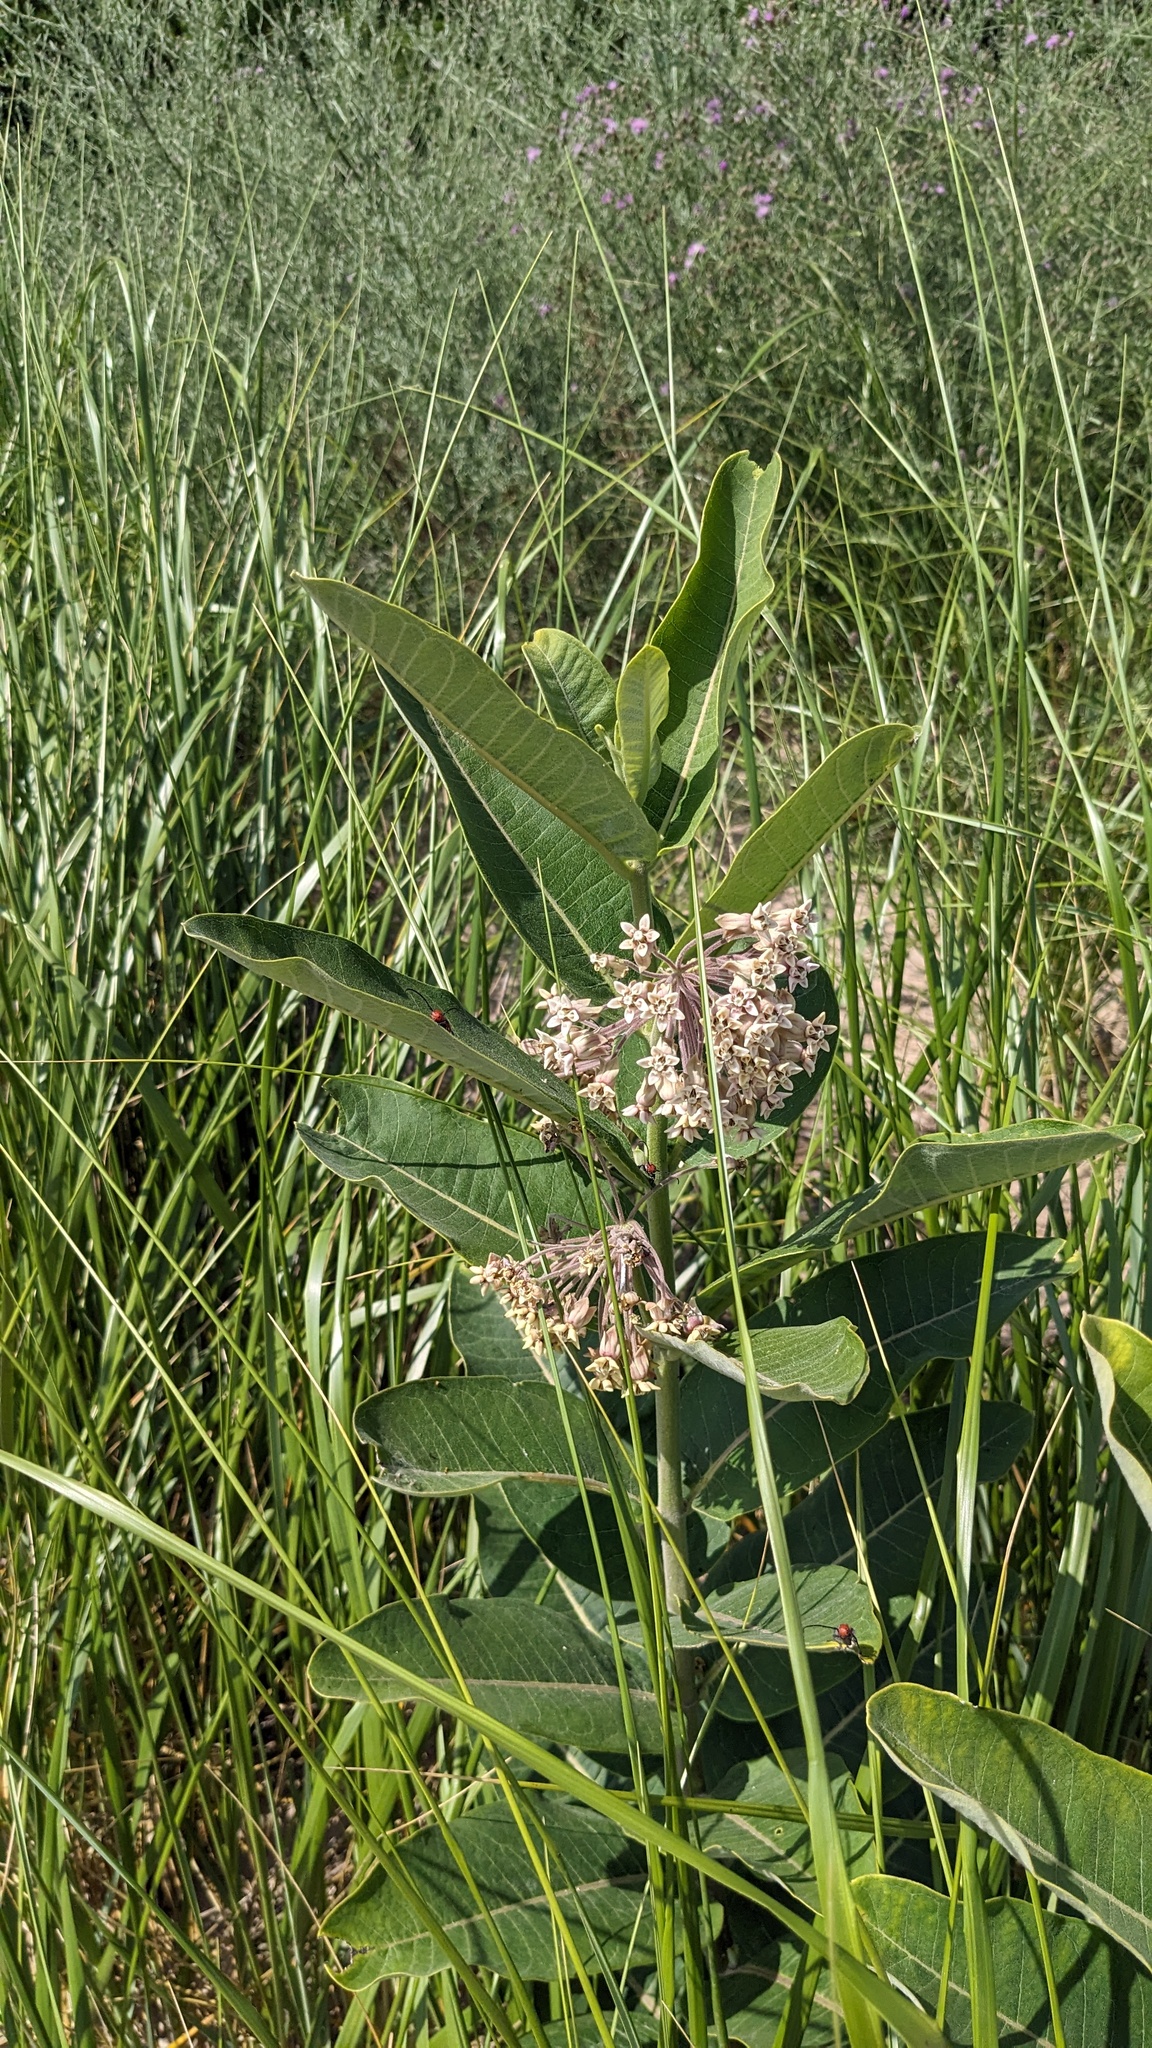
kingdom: Plantae
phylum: Tracheophyta
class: Magnoliopsida
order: Gentianales
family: Apocynaceae
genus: Asclepias
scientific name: Asclepias syriaca
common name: Common milkweed
